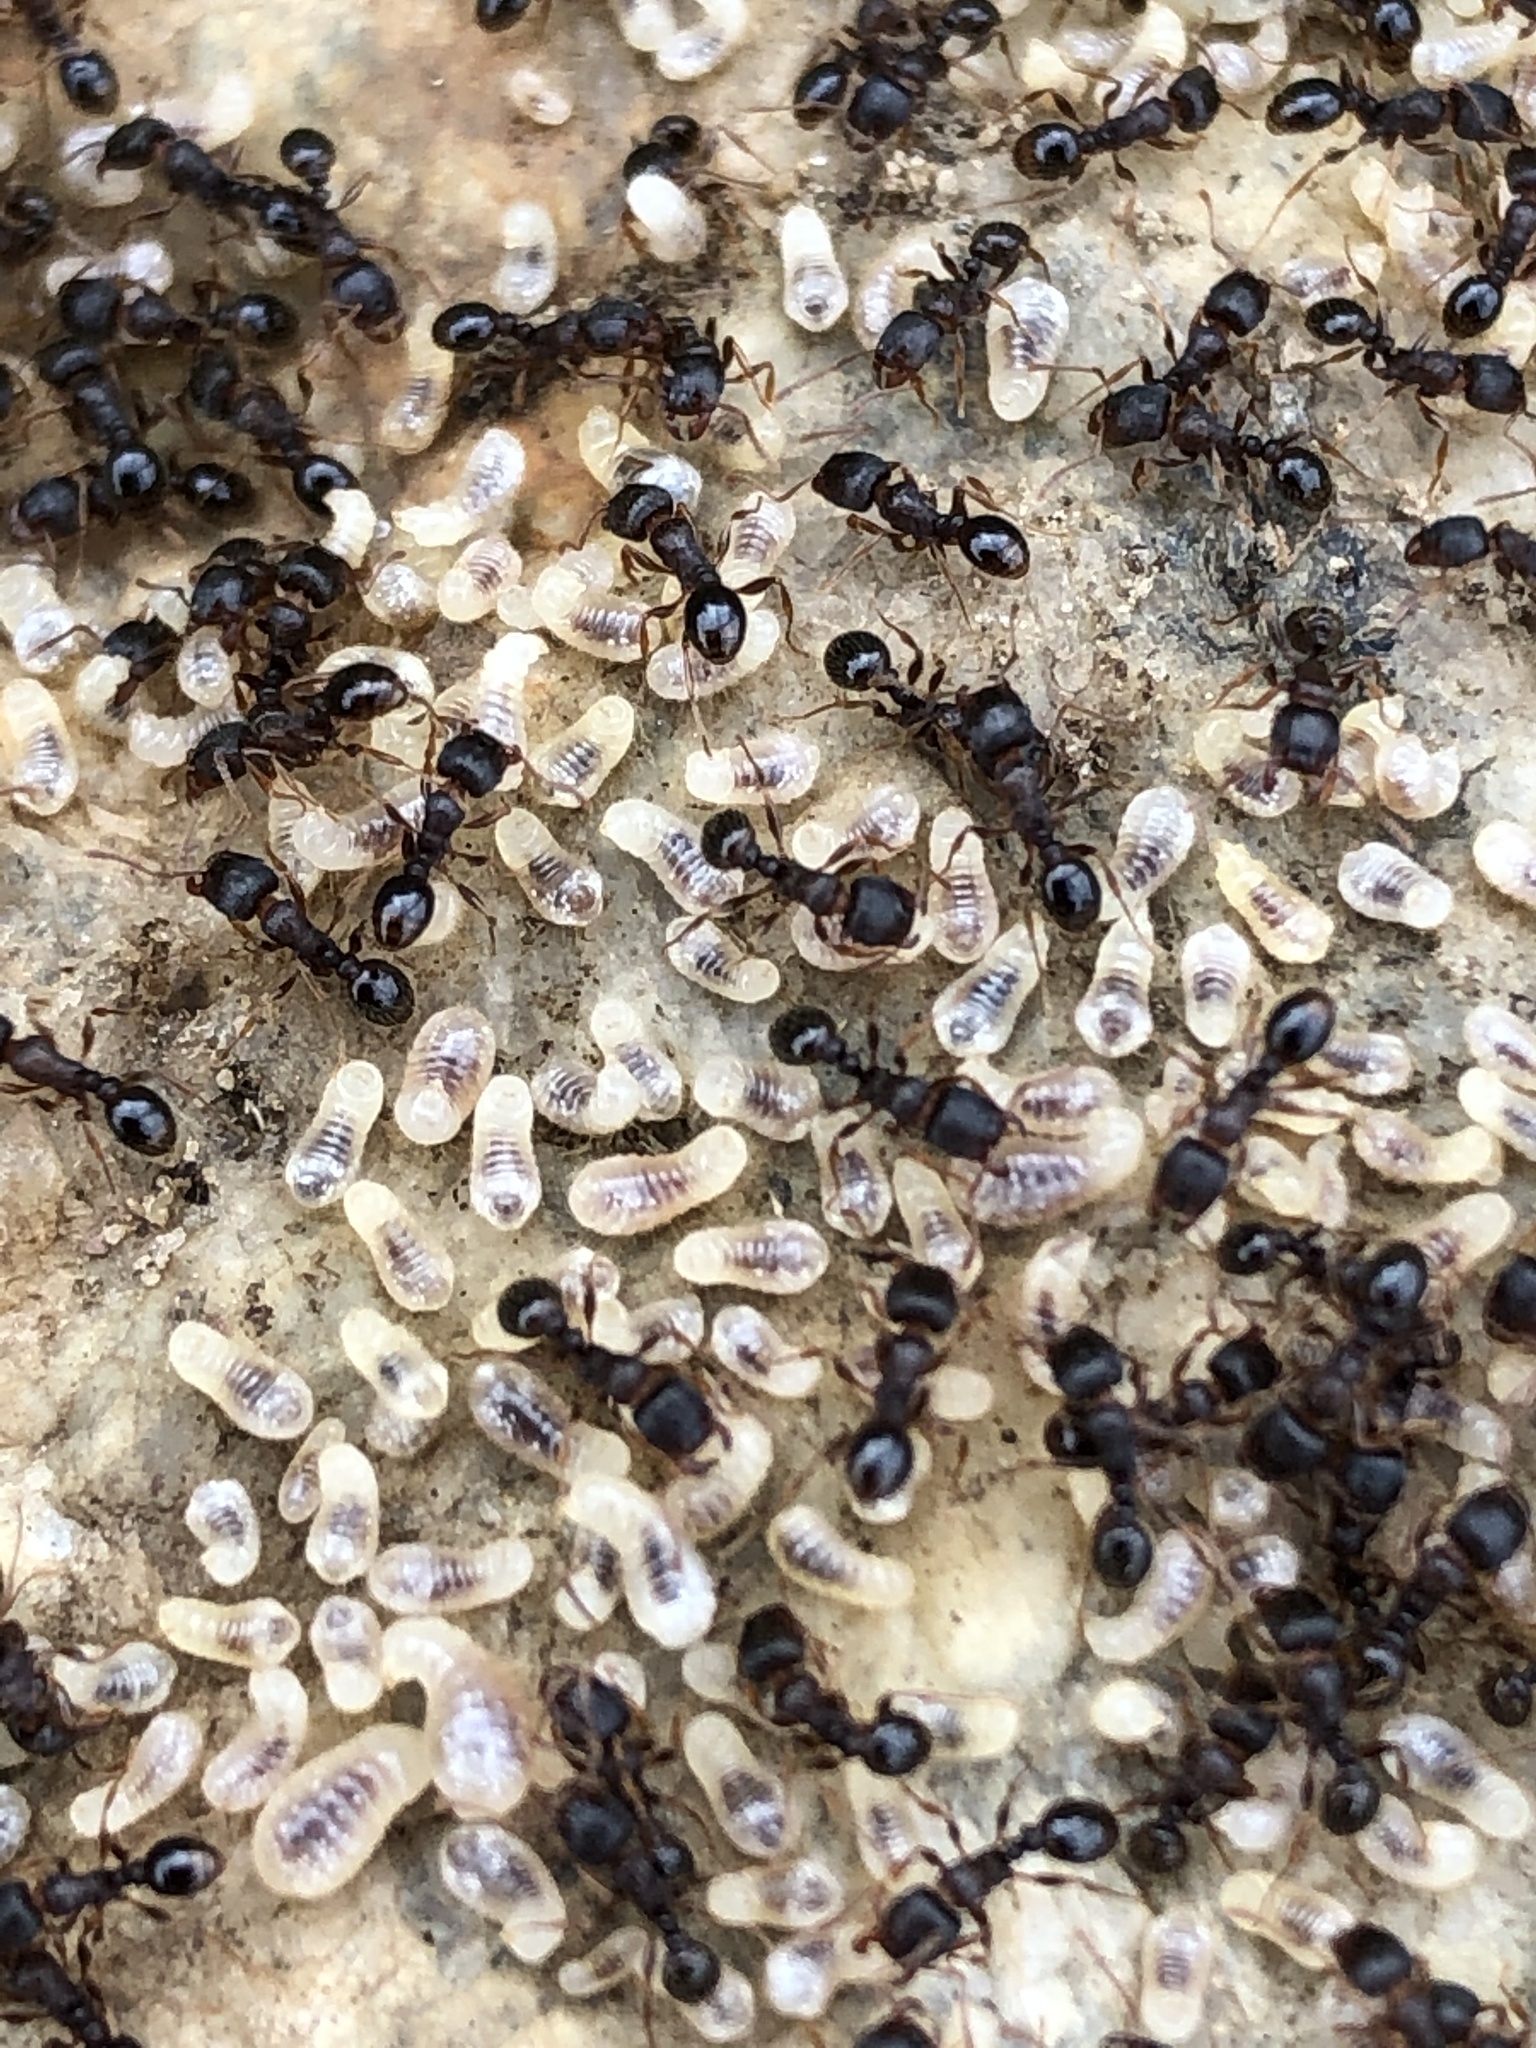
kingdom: Animalia
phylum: Arthropoda
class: Insecta
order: Hymenoptera
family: Formicidae
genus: Tetramorium
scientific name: Tetramorium immigrans
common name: Pavement ant
